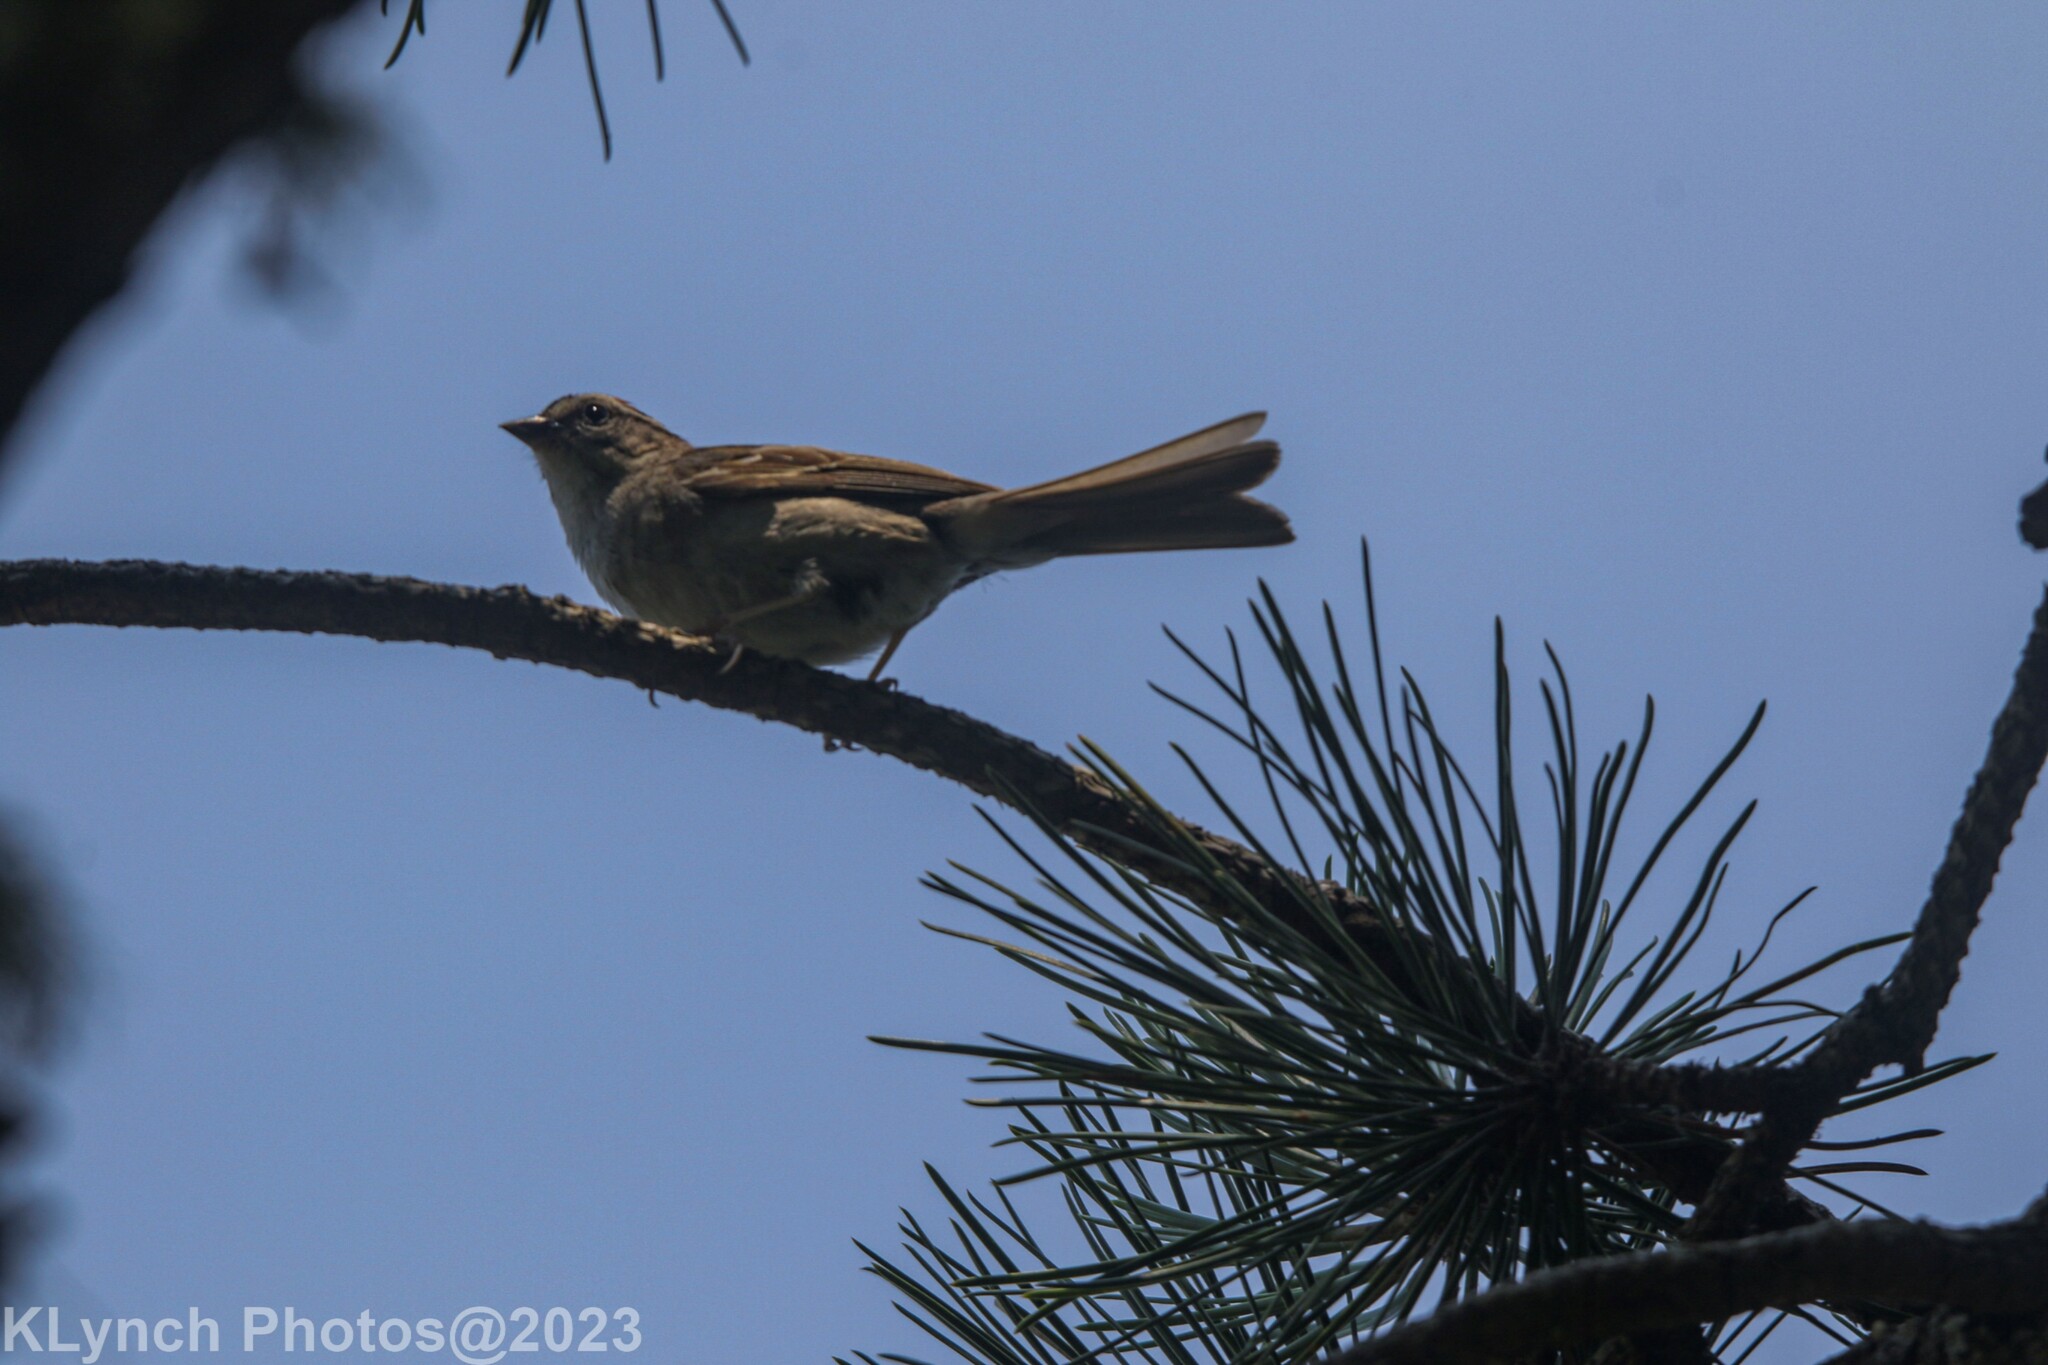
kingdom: Animalia
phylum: Chordata
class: Aves
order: Passeriformes
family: Passerellidae
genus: Spizella
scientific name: Spizella passerina
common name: Chipping sparrow
